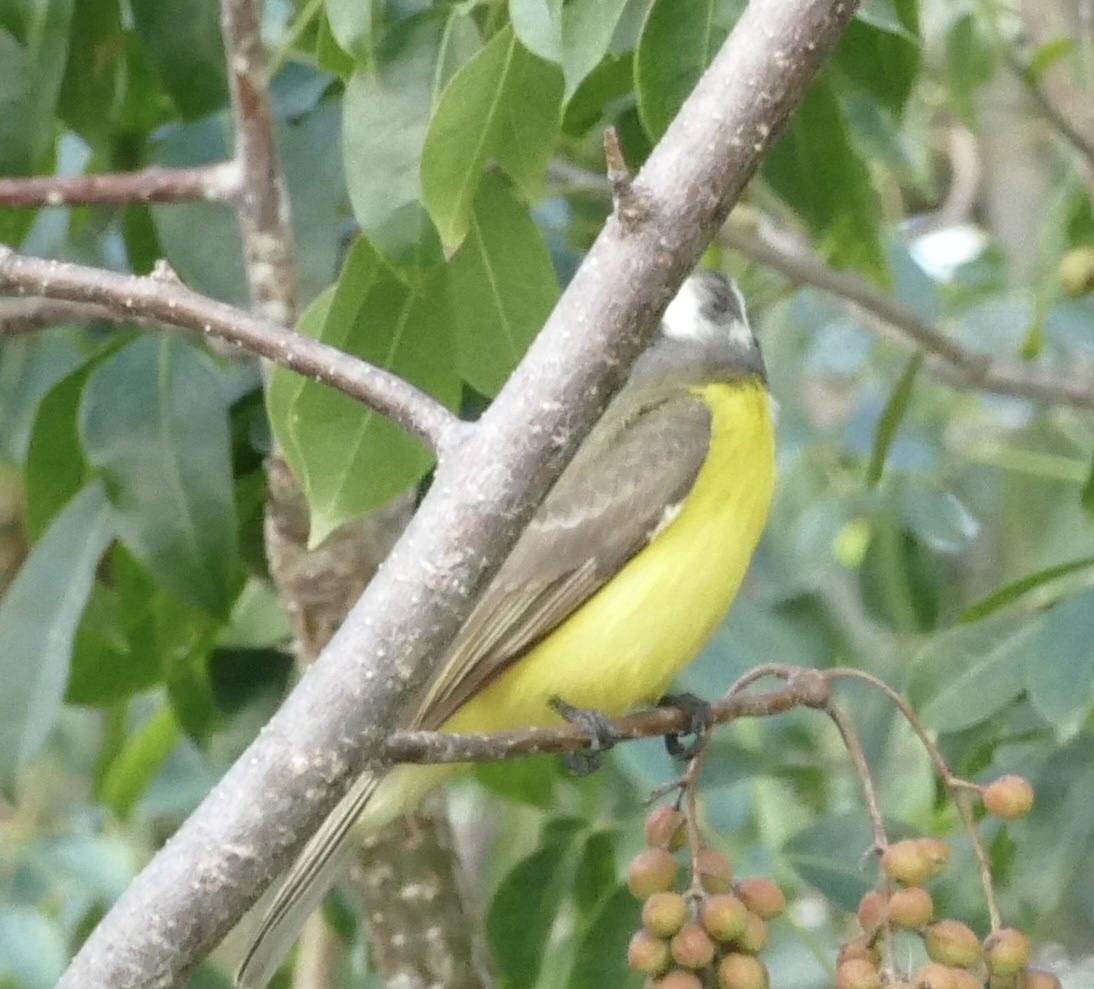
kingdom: Animalia
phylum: Chordata
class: Aves
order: Passeriformes
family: Tyrannidae
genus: Myiozetetes
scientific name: Myiozetetes similis
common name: Social flycatcher
